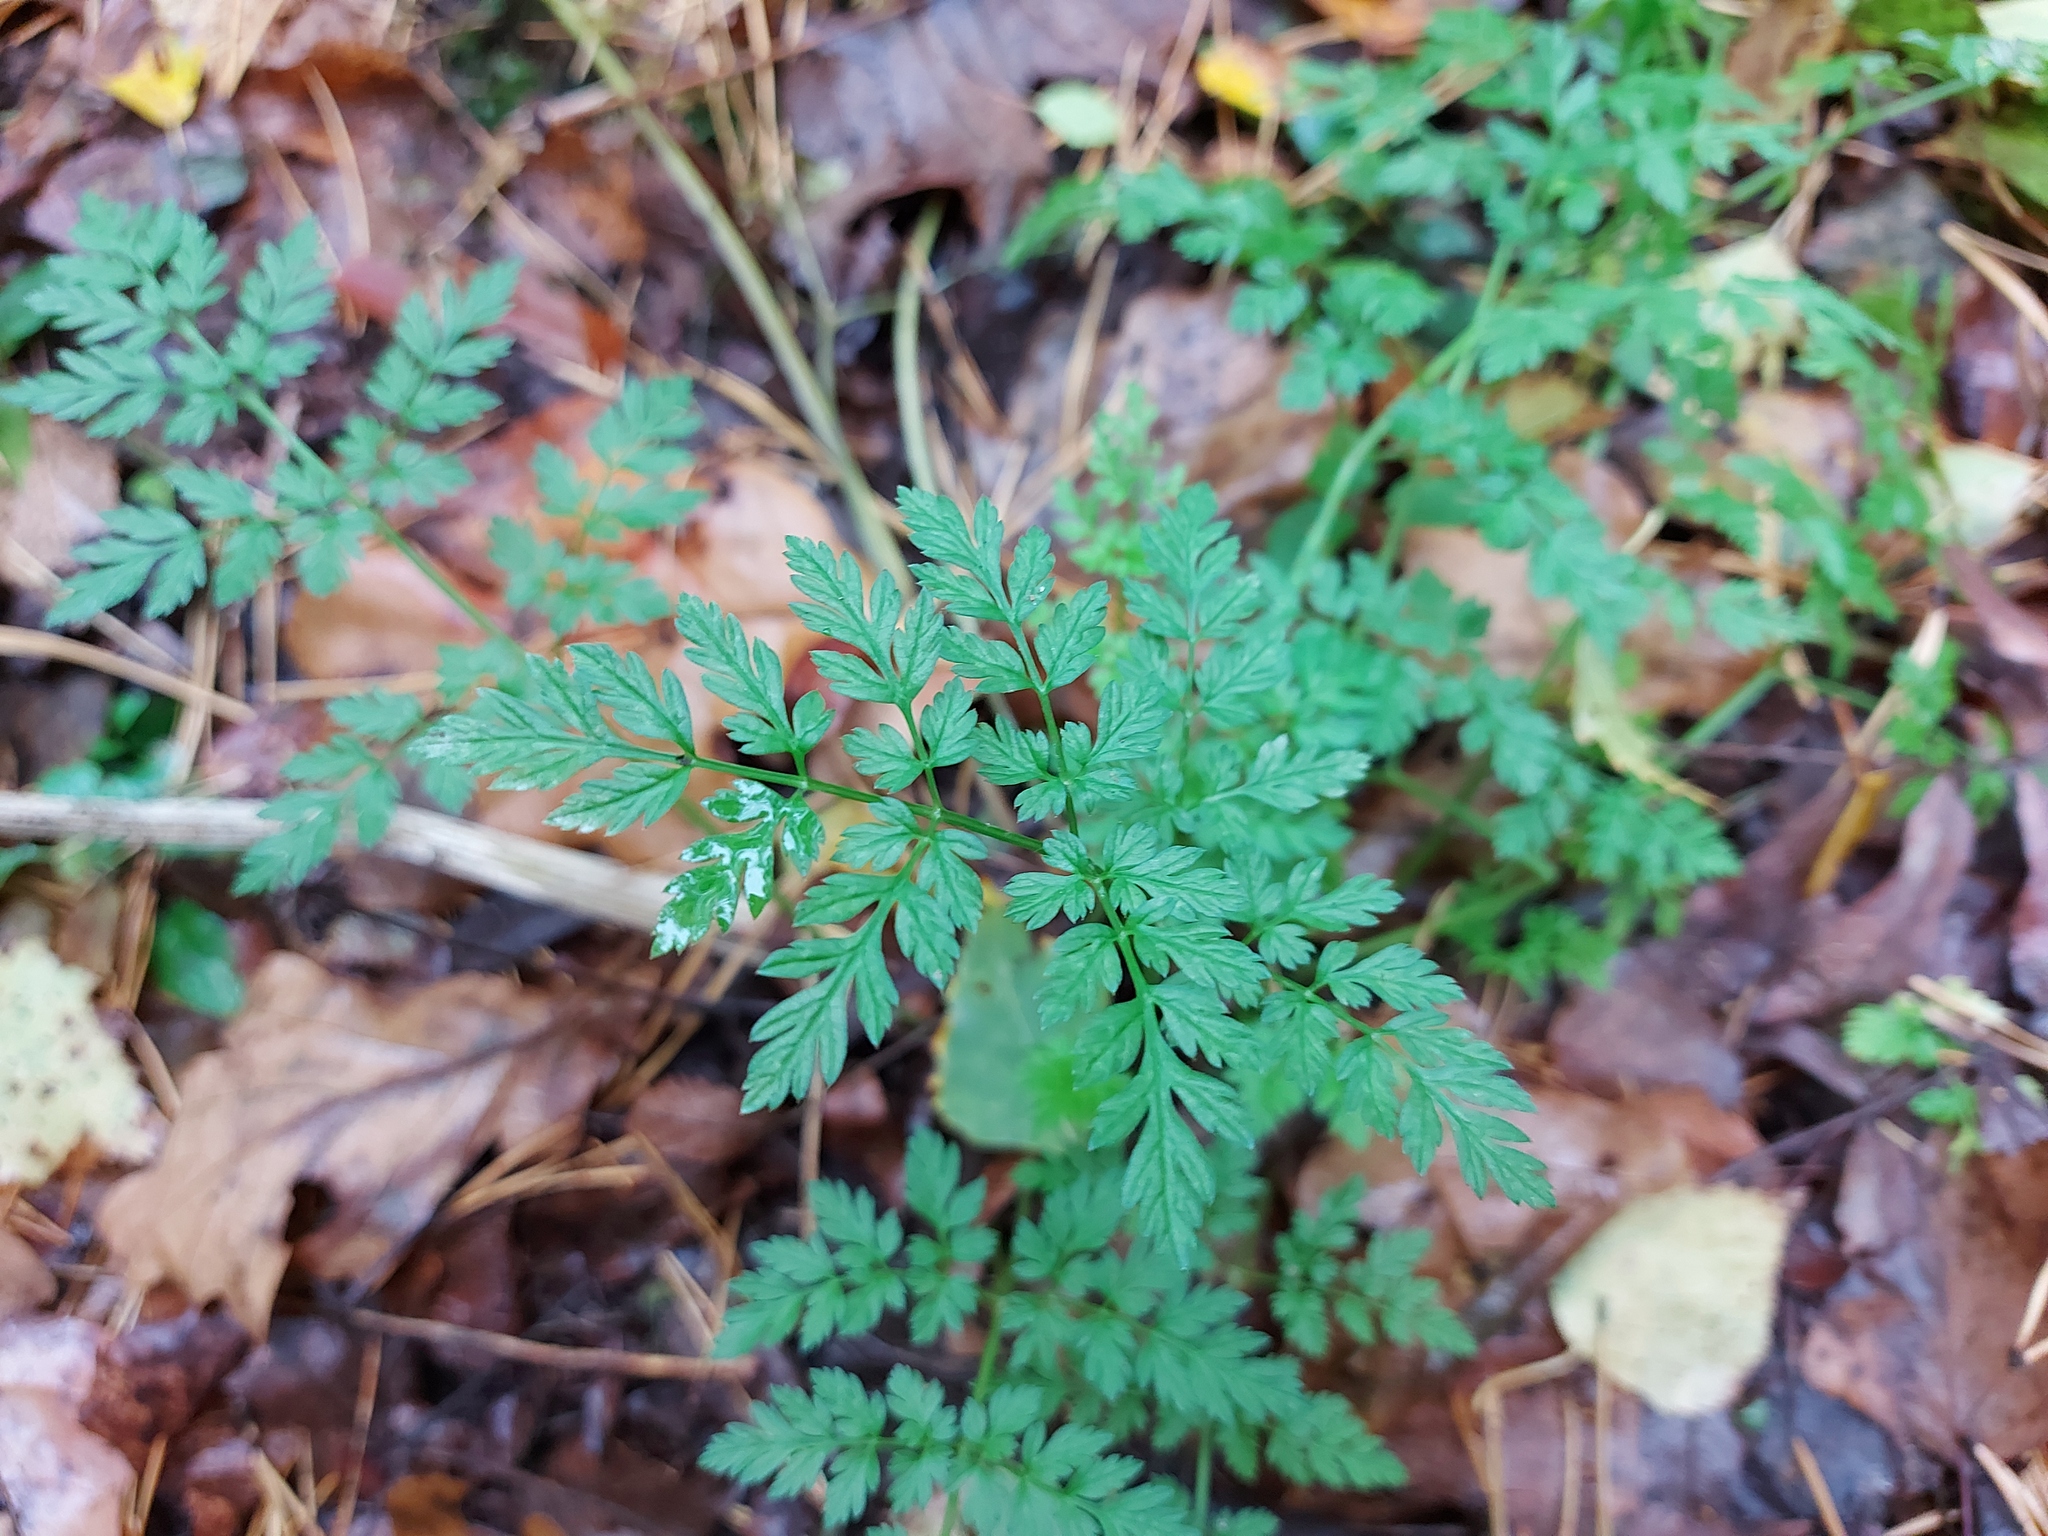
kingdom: Plantae
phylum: Tracheophyta
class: Magnoliopsida
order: Apiales
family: Apiaceae
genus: Anthriscus
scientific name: Anthriscus sylvestris
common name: Cow parsley
